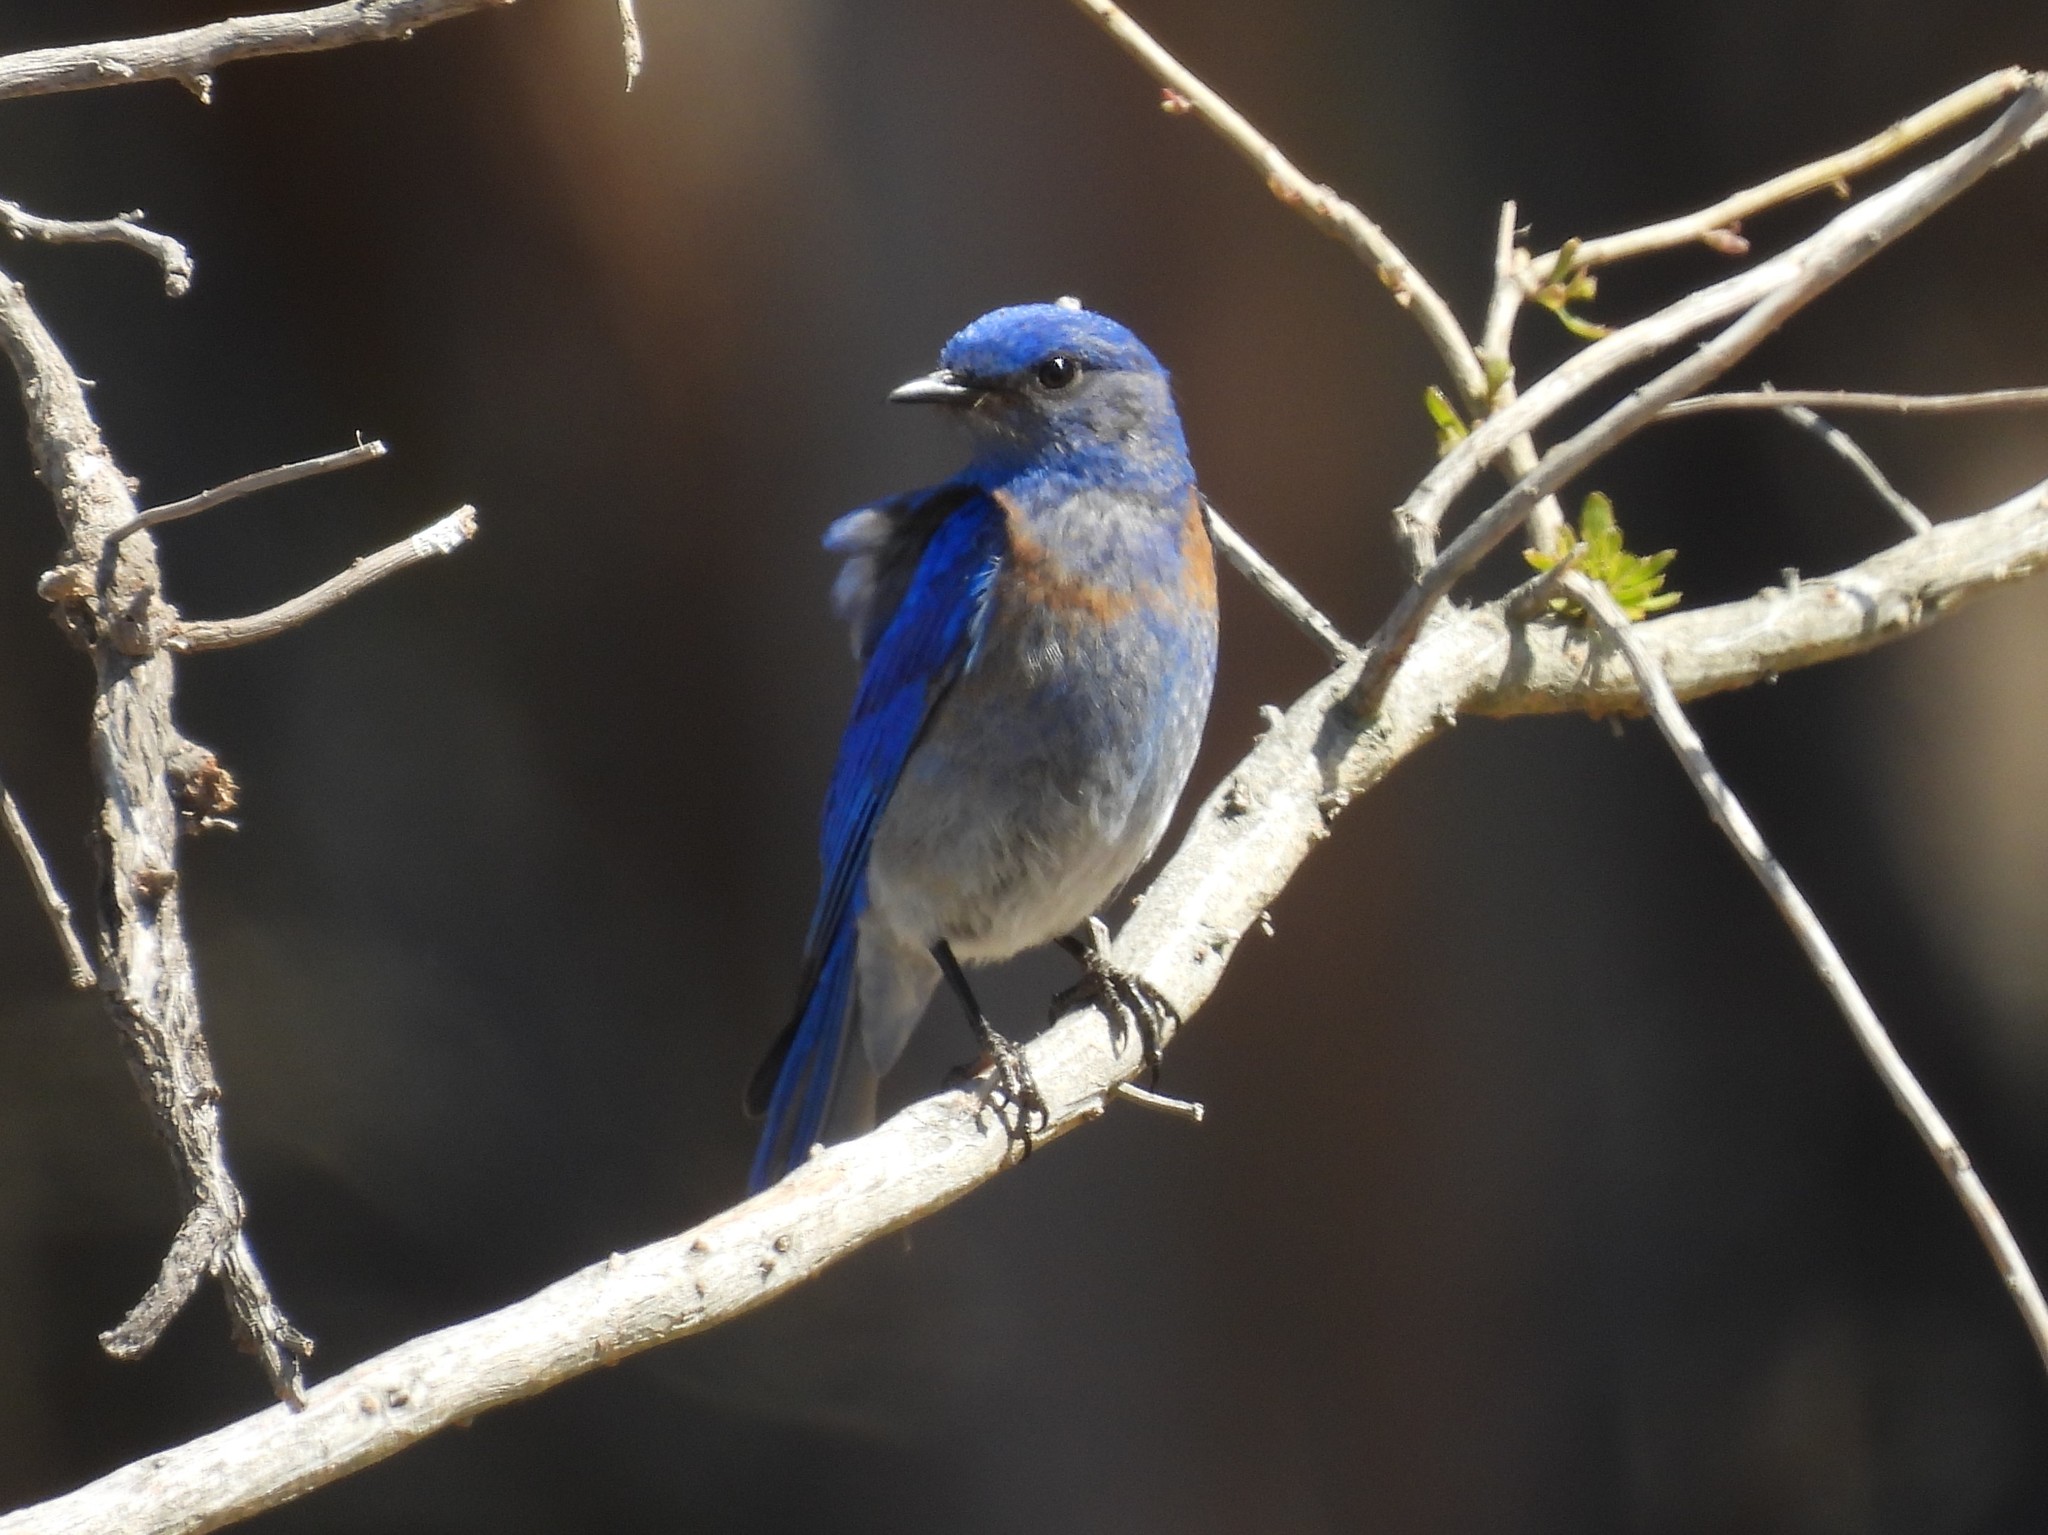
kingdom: Animalia
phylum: Chordata
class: Aves
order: Passeriformes
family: Turdidae
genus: Sialia
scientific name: Sialia mexicana
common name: Western bluebird
